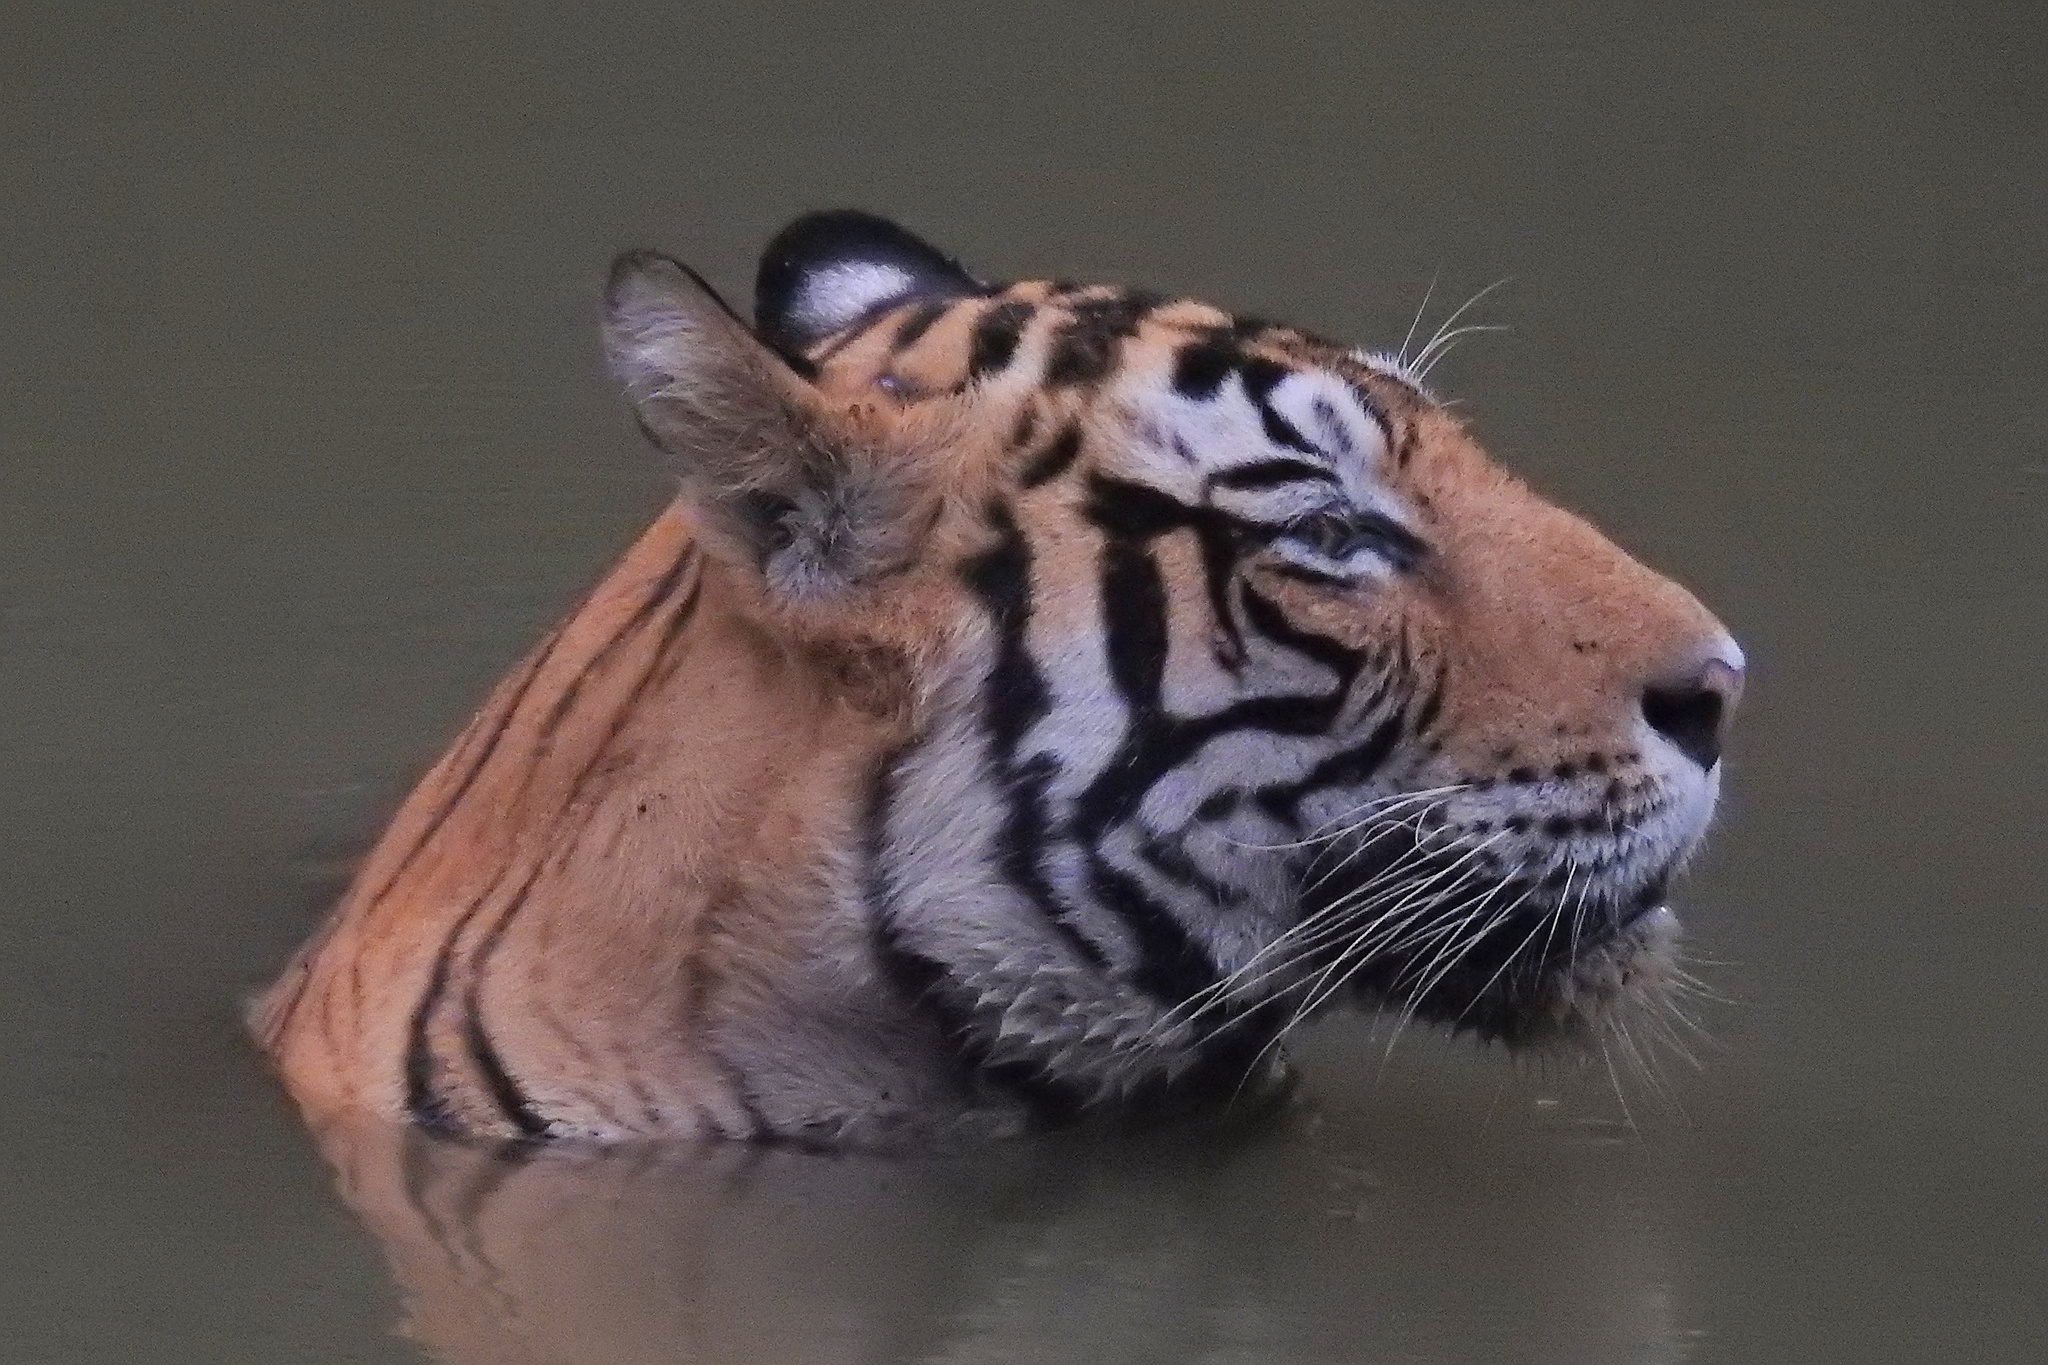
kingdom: Animalia
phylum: Chordata
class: Mammalia
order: Carnivora
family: Felidae
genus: Panthera
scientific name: Panthera tigris
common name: Tiger
